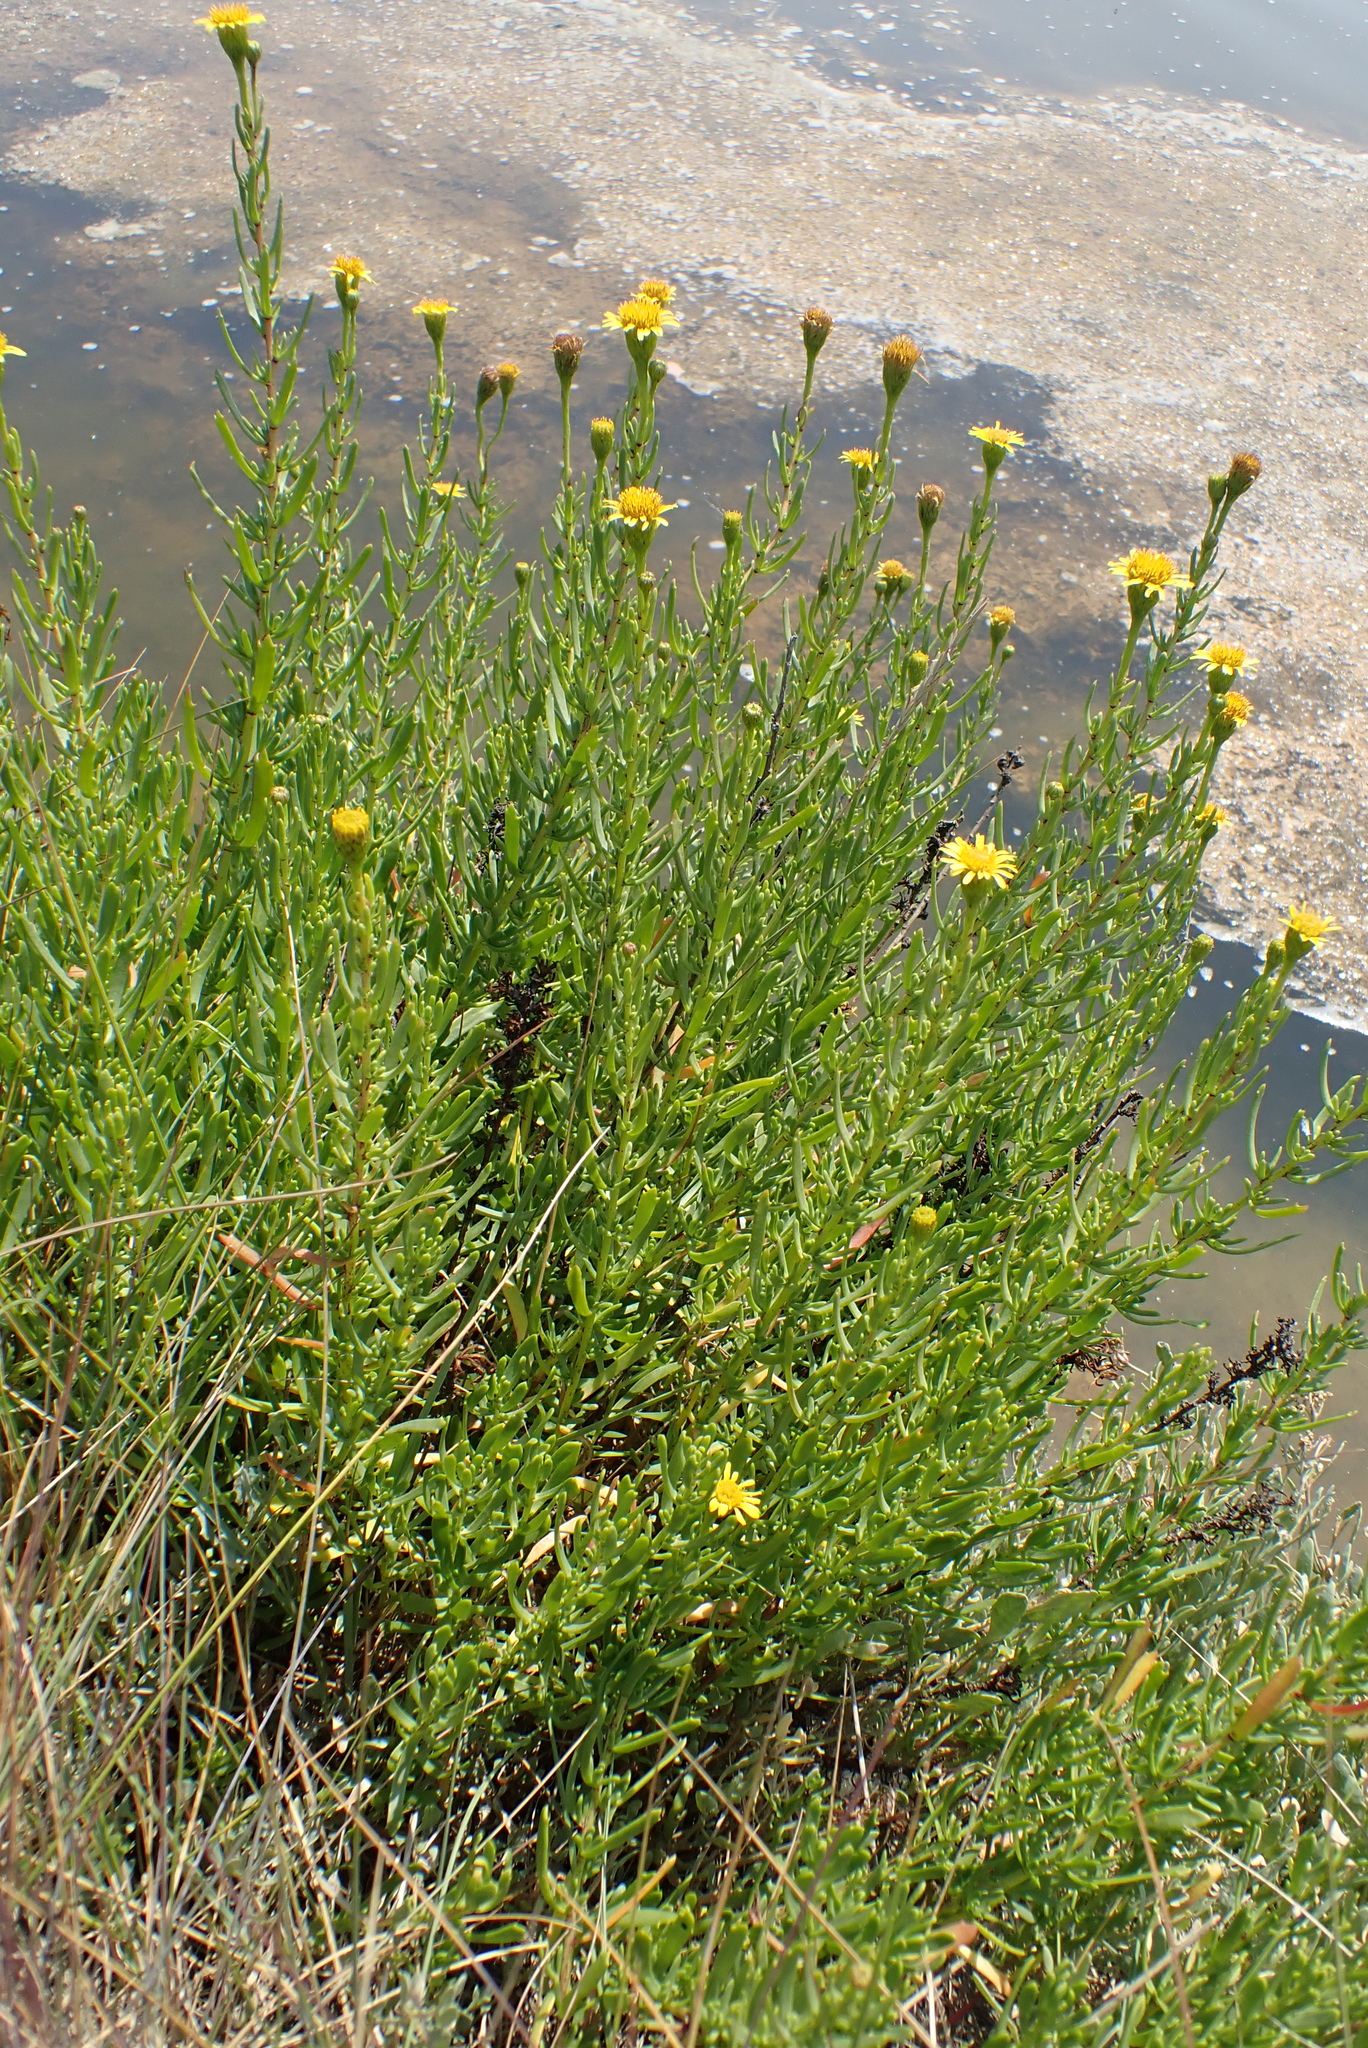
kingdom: Plantae
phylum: Tracheophyta
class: Magnoliopsida
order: Asterales
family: Asteraceae
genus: Limbarda
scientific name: Limbarda crithmoides
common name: Golden samphire
